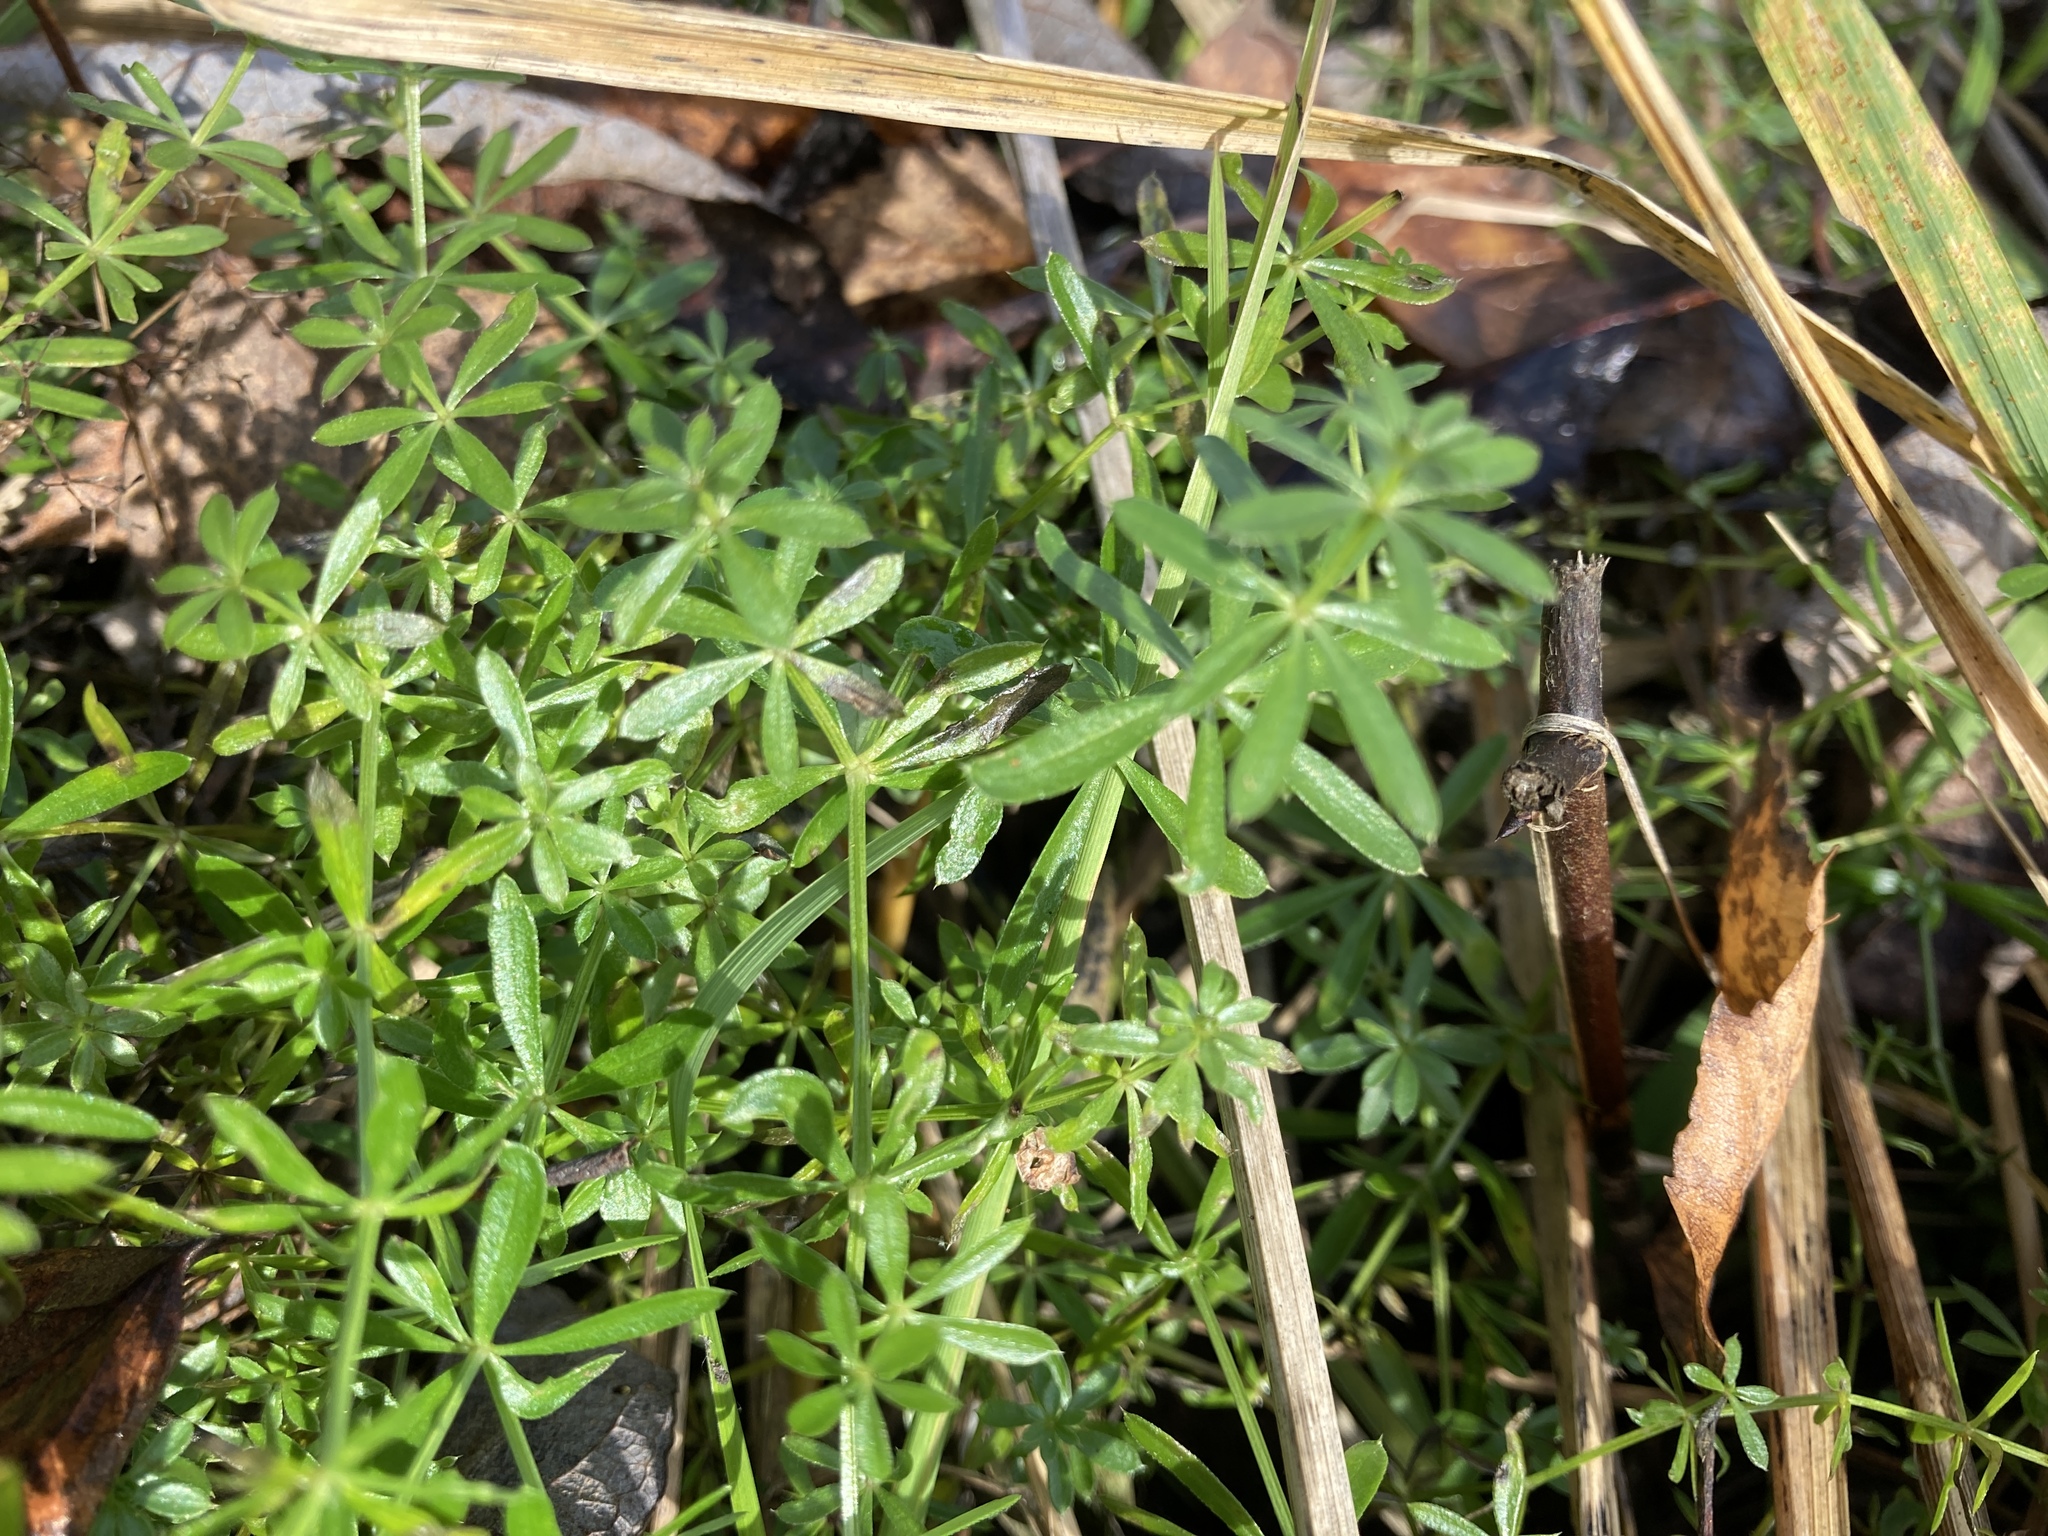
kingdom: Plantae
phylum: Tracheophyta
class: Magnoliopsida
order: Gentianales
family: Rubiaceae
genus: Galium
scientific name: Galium mollugo
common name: Hedge bedstraw
